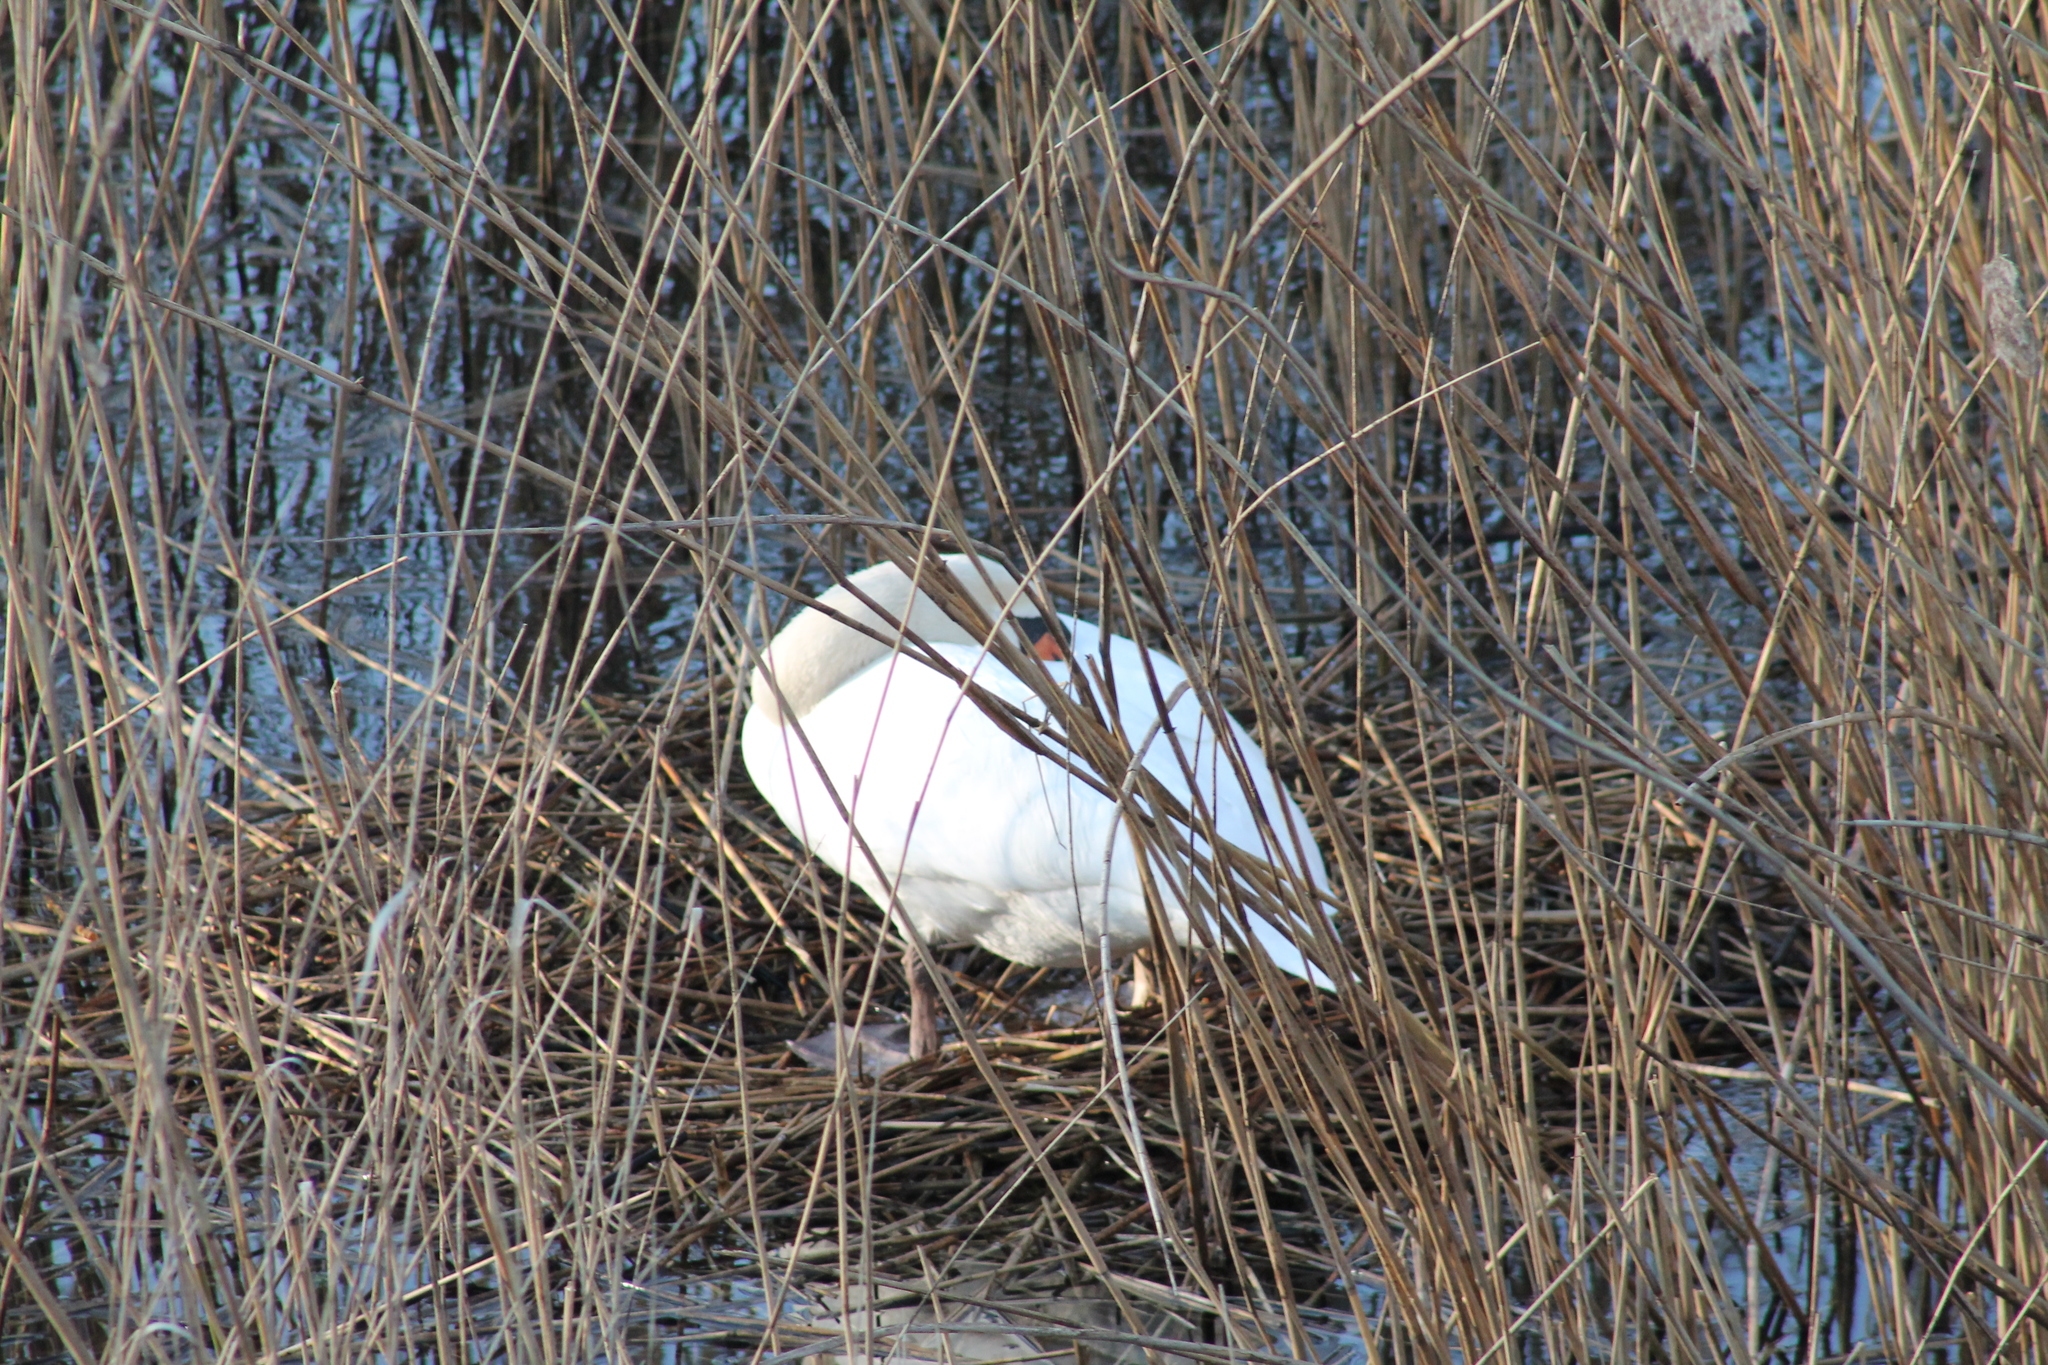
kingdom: Animalia
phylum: Chordata
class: Aves
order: Anseriformes
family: Anatidae
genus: Cygnus
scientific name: Cygnus olor
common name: Mute swan
